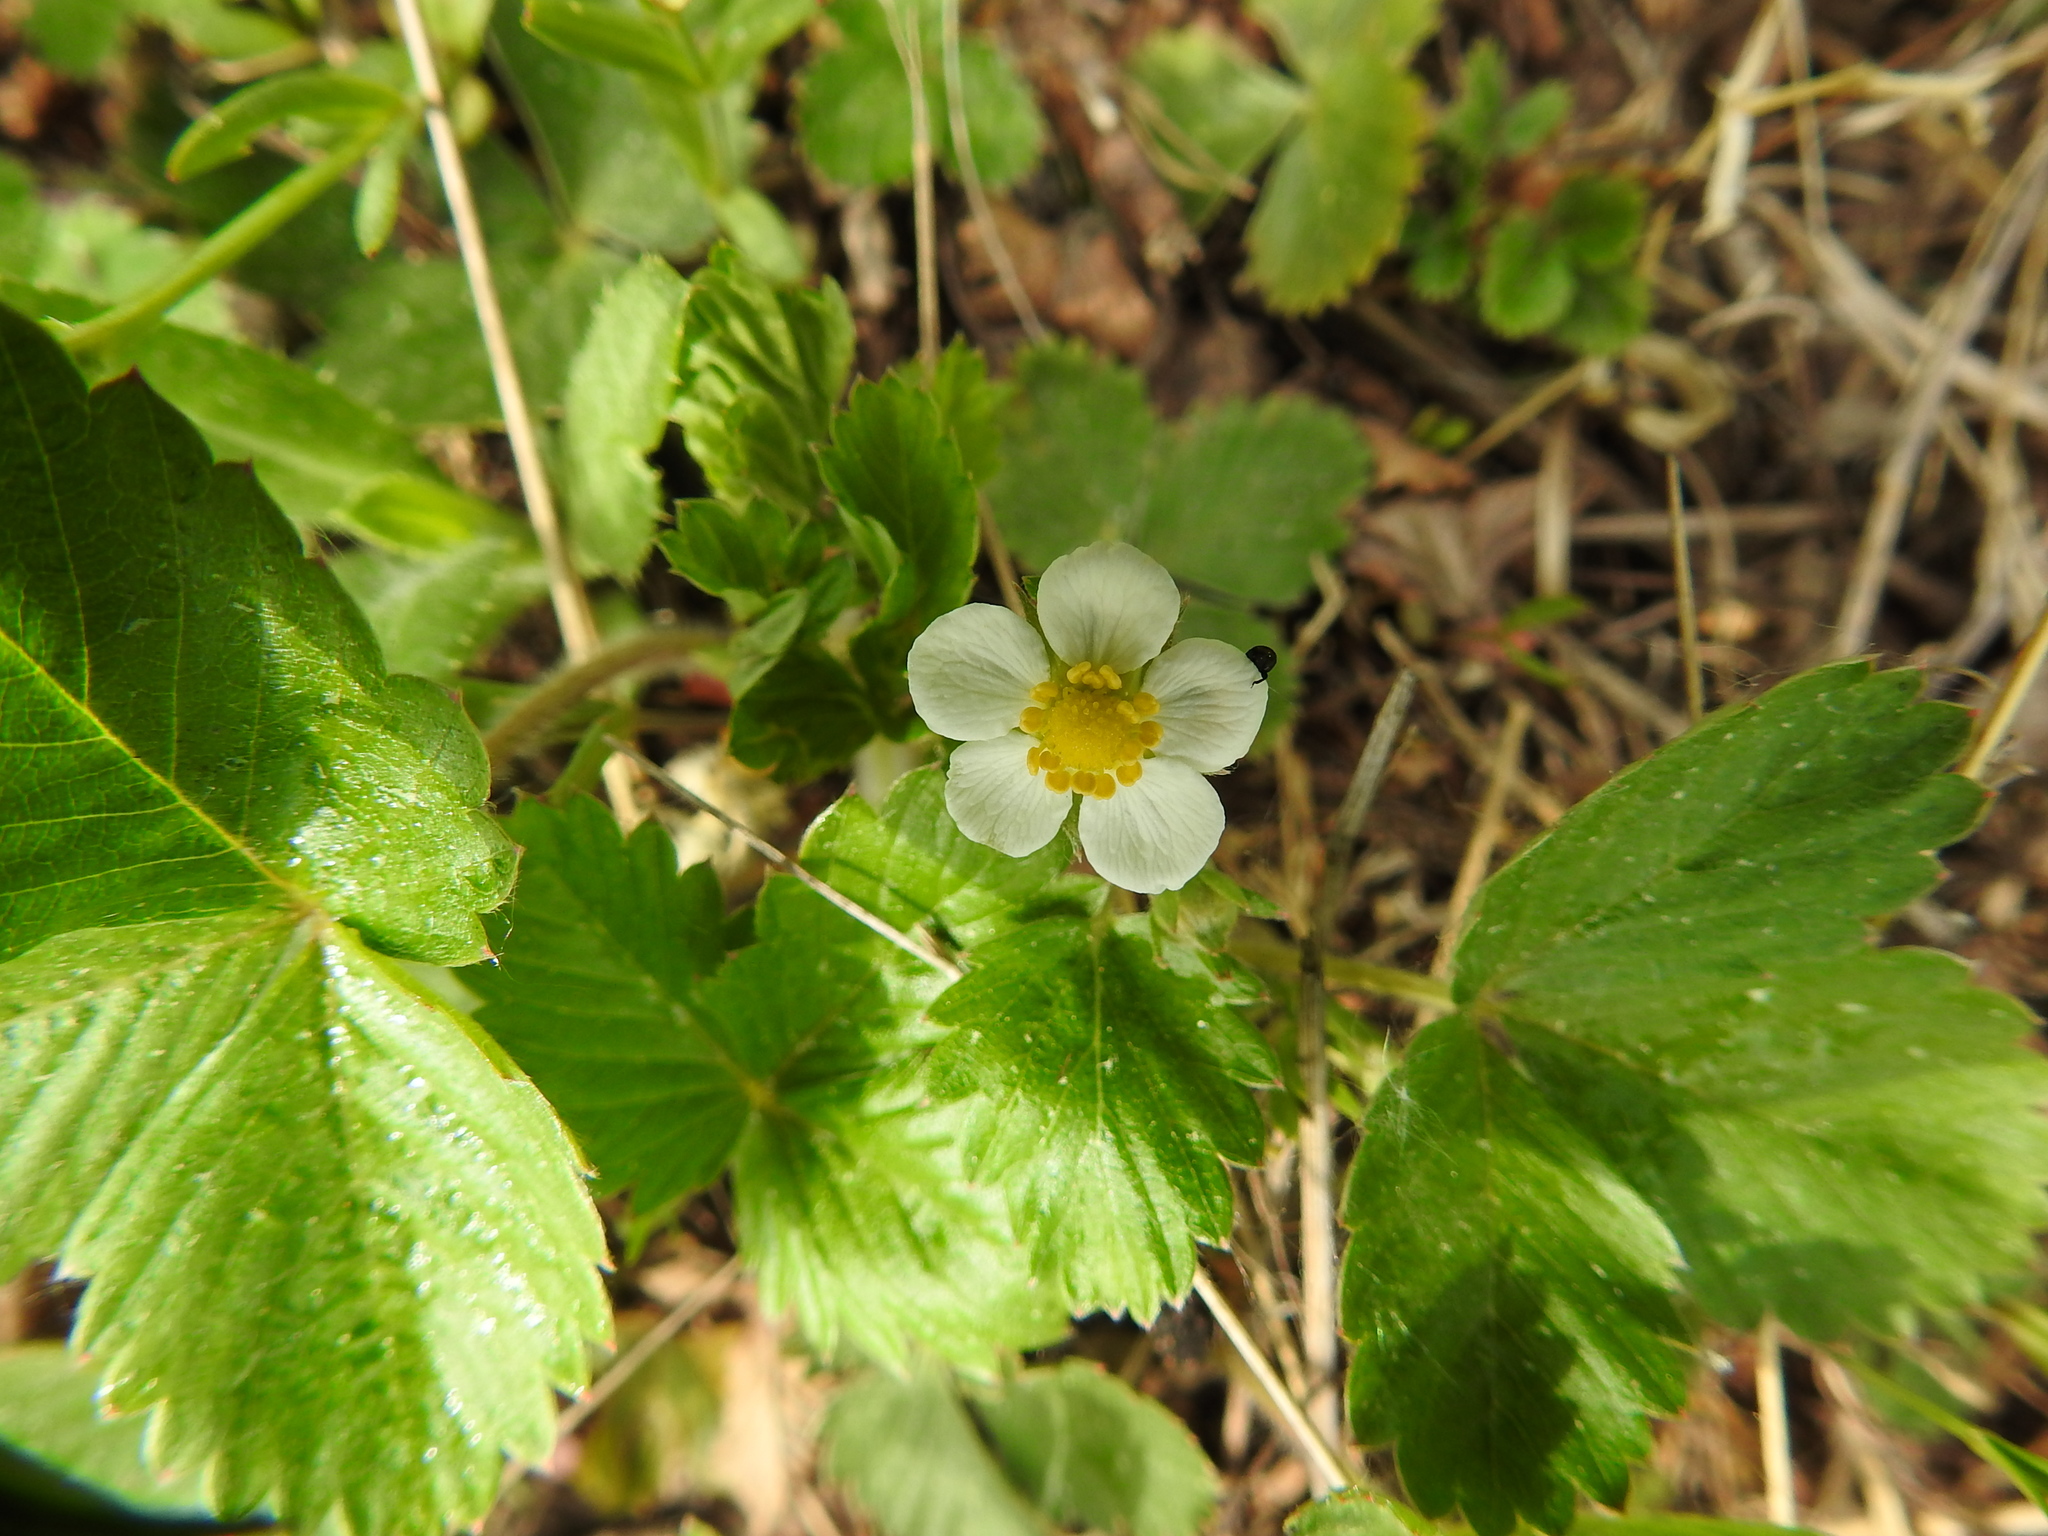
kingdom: Plantae
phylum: Tracheophyta
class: Magnoliopsida
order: Rosales
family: Rosaceae
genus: Fragaria
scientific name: Fragaria vesca
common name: Wild strawberry
